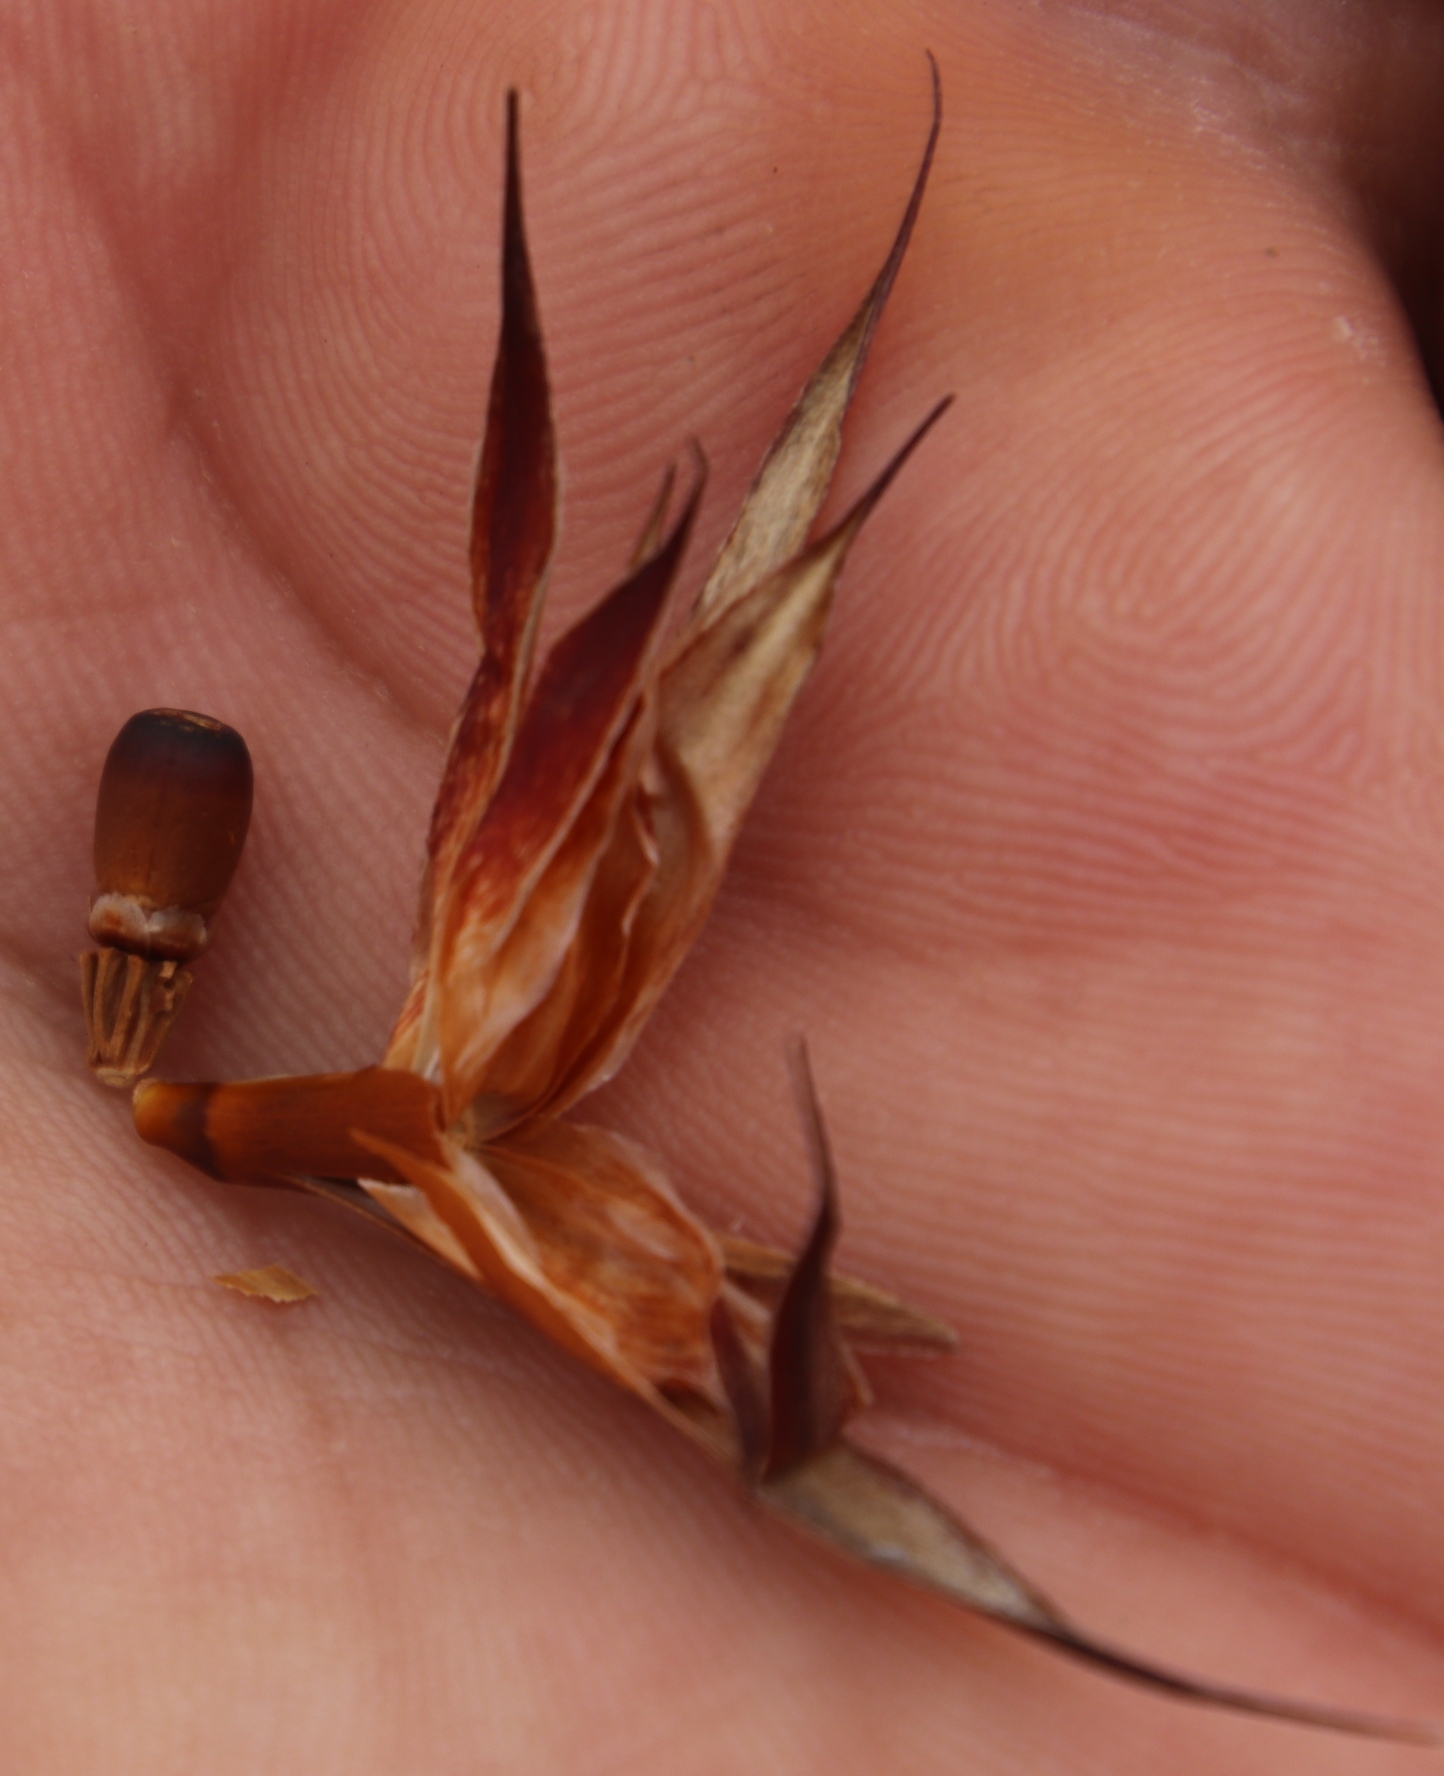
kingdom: Plantae
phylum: Tracheophyta
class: Liliopsida
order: Poales
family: Restionaceae
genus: Willdenowia
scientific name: Willdenowia glomerata
